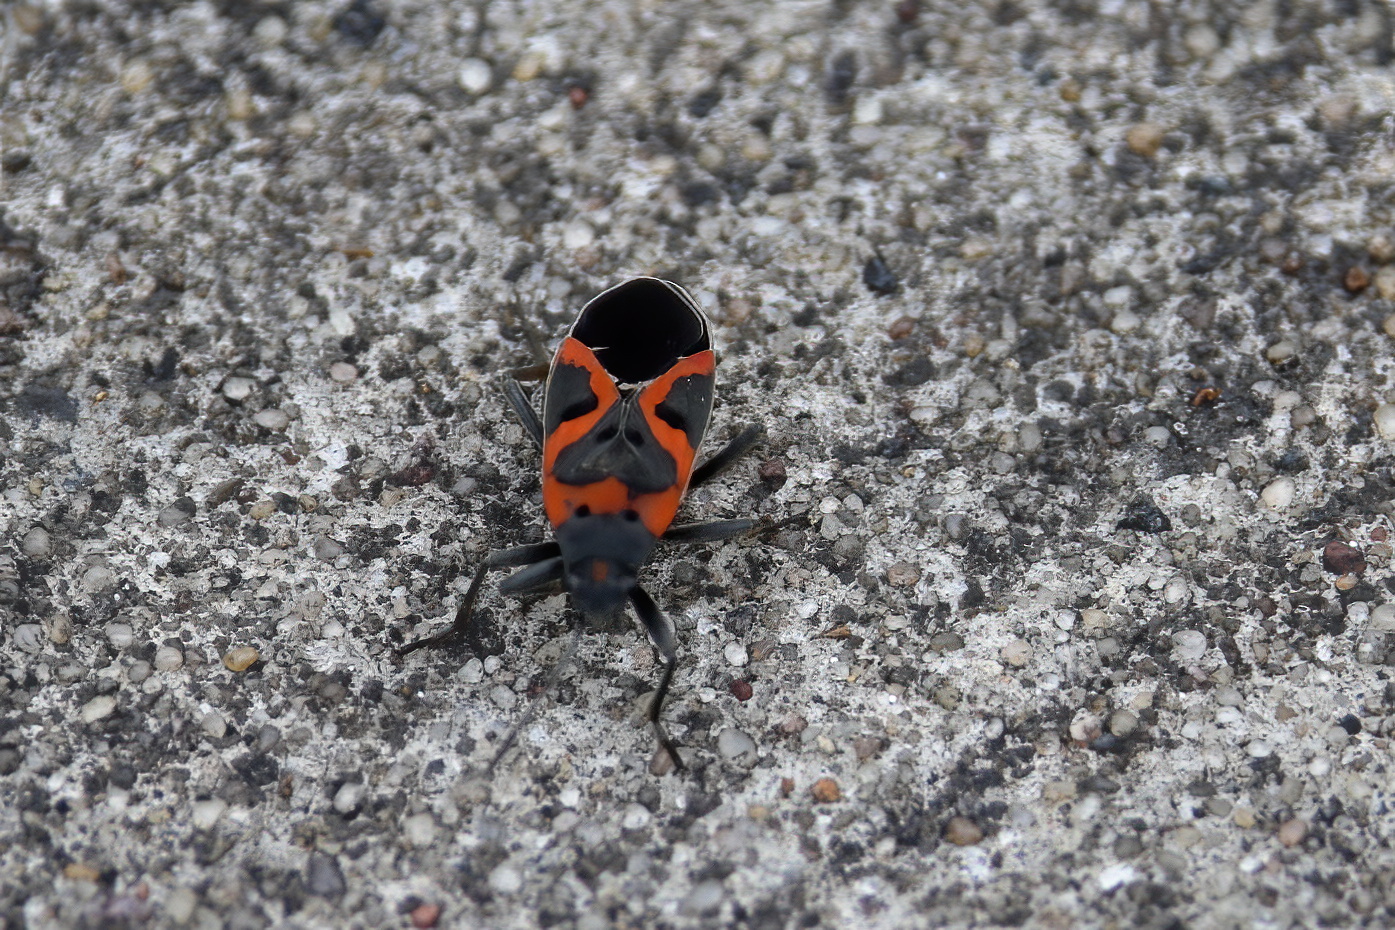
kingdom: Animalia
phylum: Arthropoda
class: Insecta
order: Hemiptera
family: Lygaeidae
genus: Lygaeus
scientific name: Lygaeus kalmii
